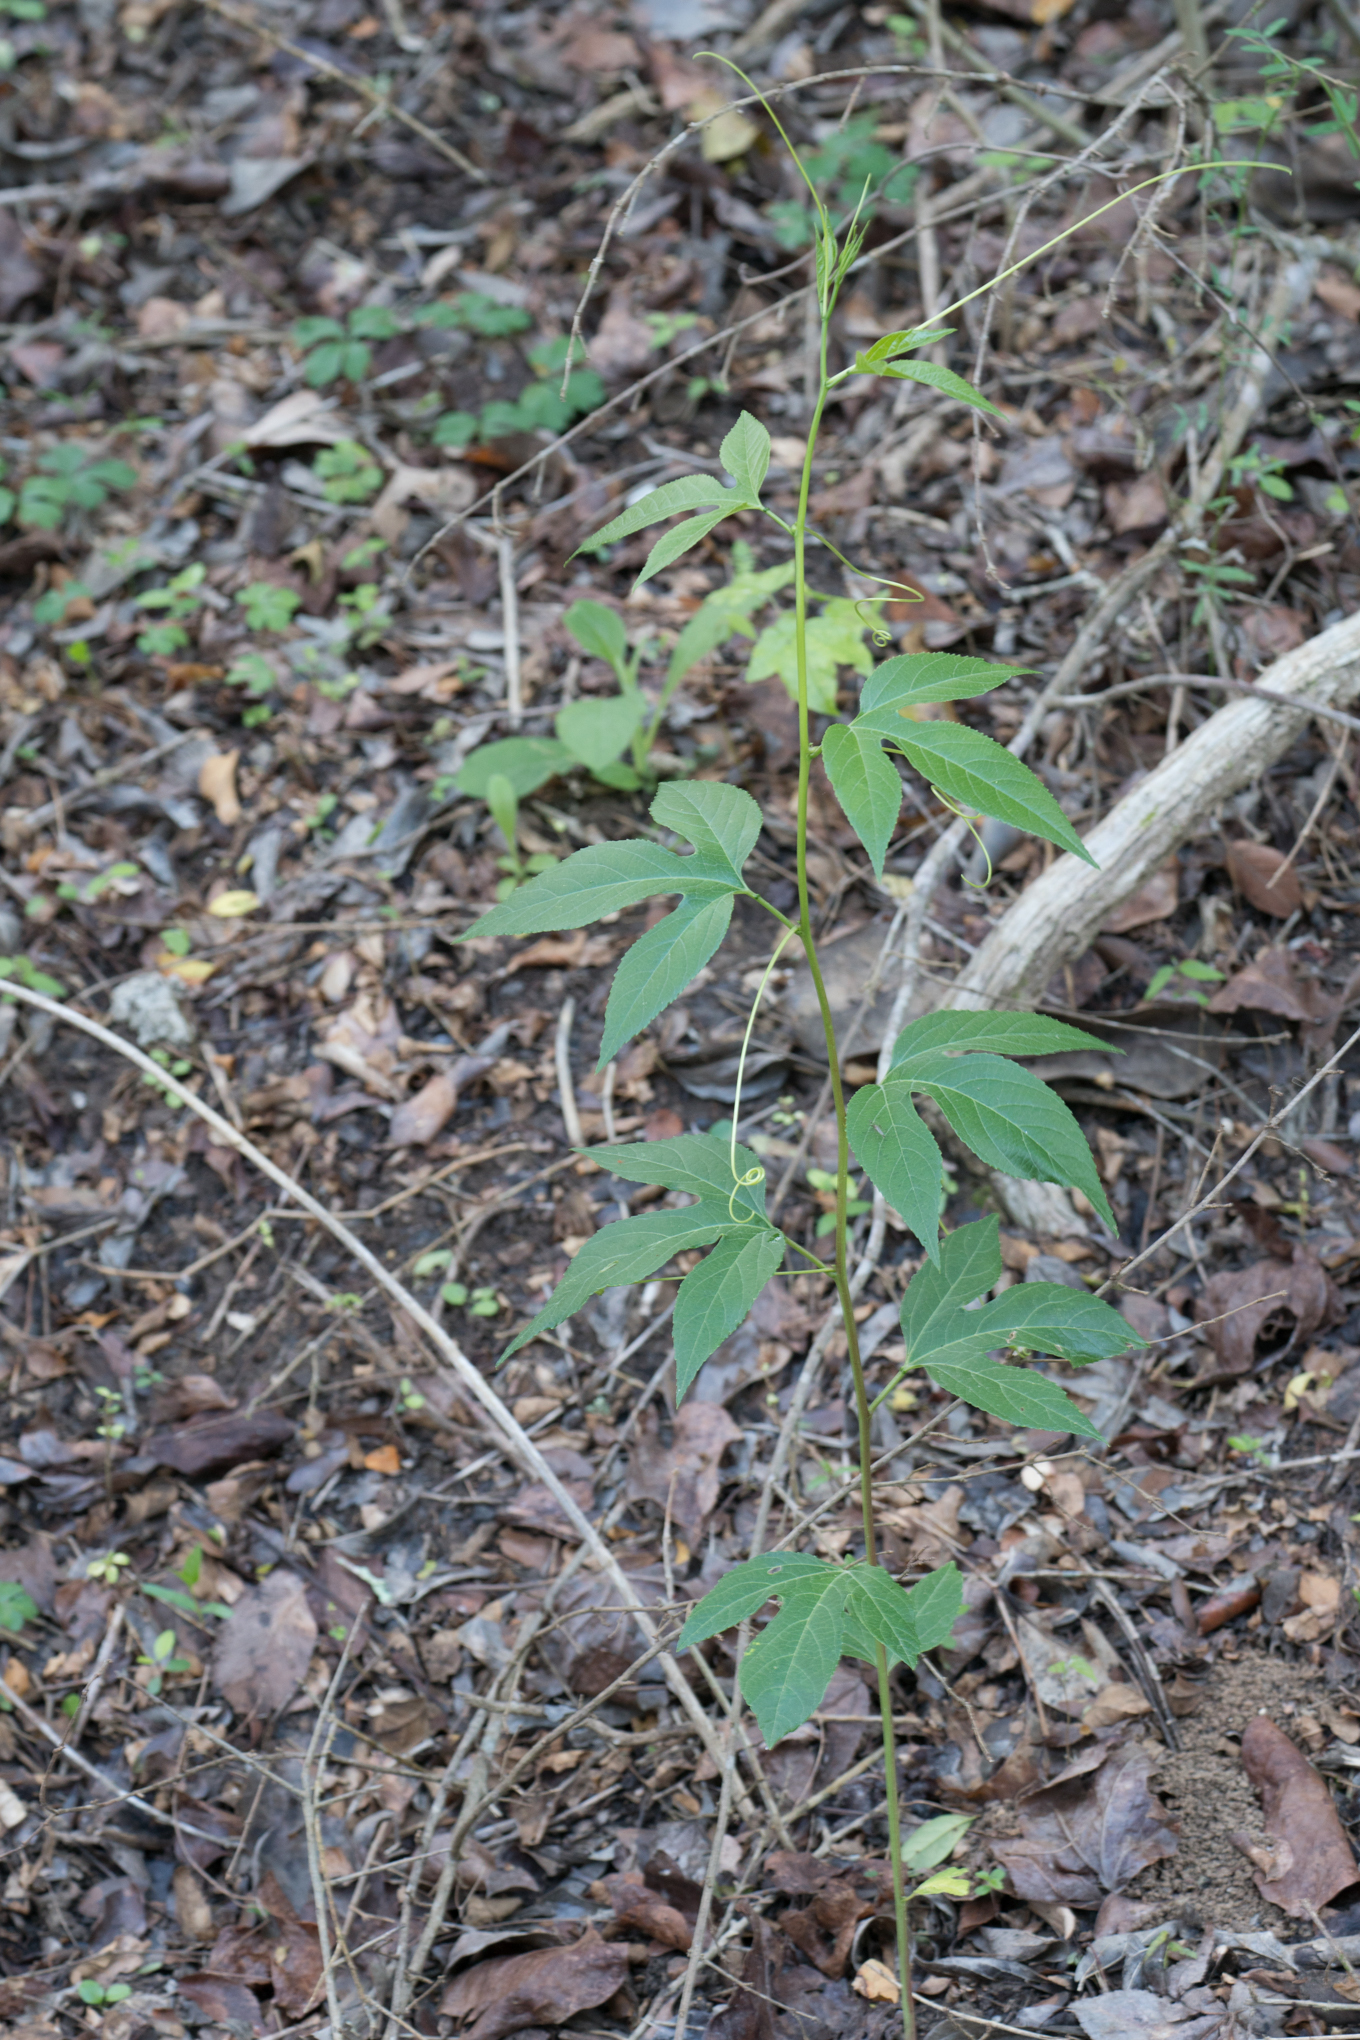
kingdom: Plantae
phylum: Tracheophyta
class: Magnoliopsida
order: Malpighiales
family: Passifloraceae
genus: Passiflora
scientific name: Passiflora incarnata
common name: Apricot-vine
